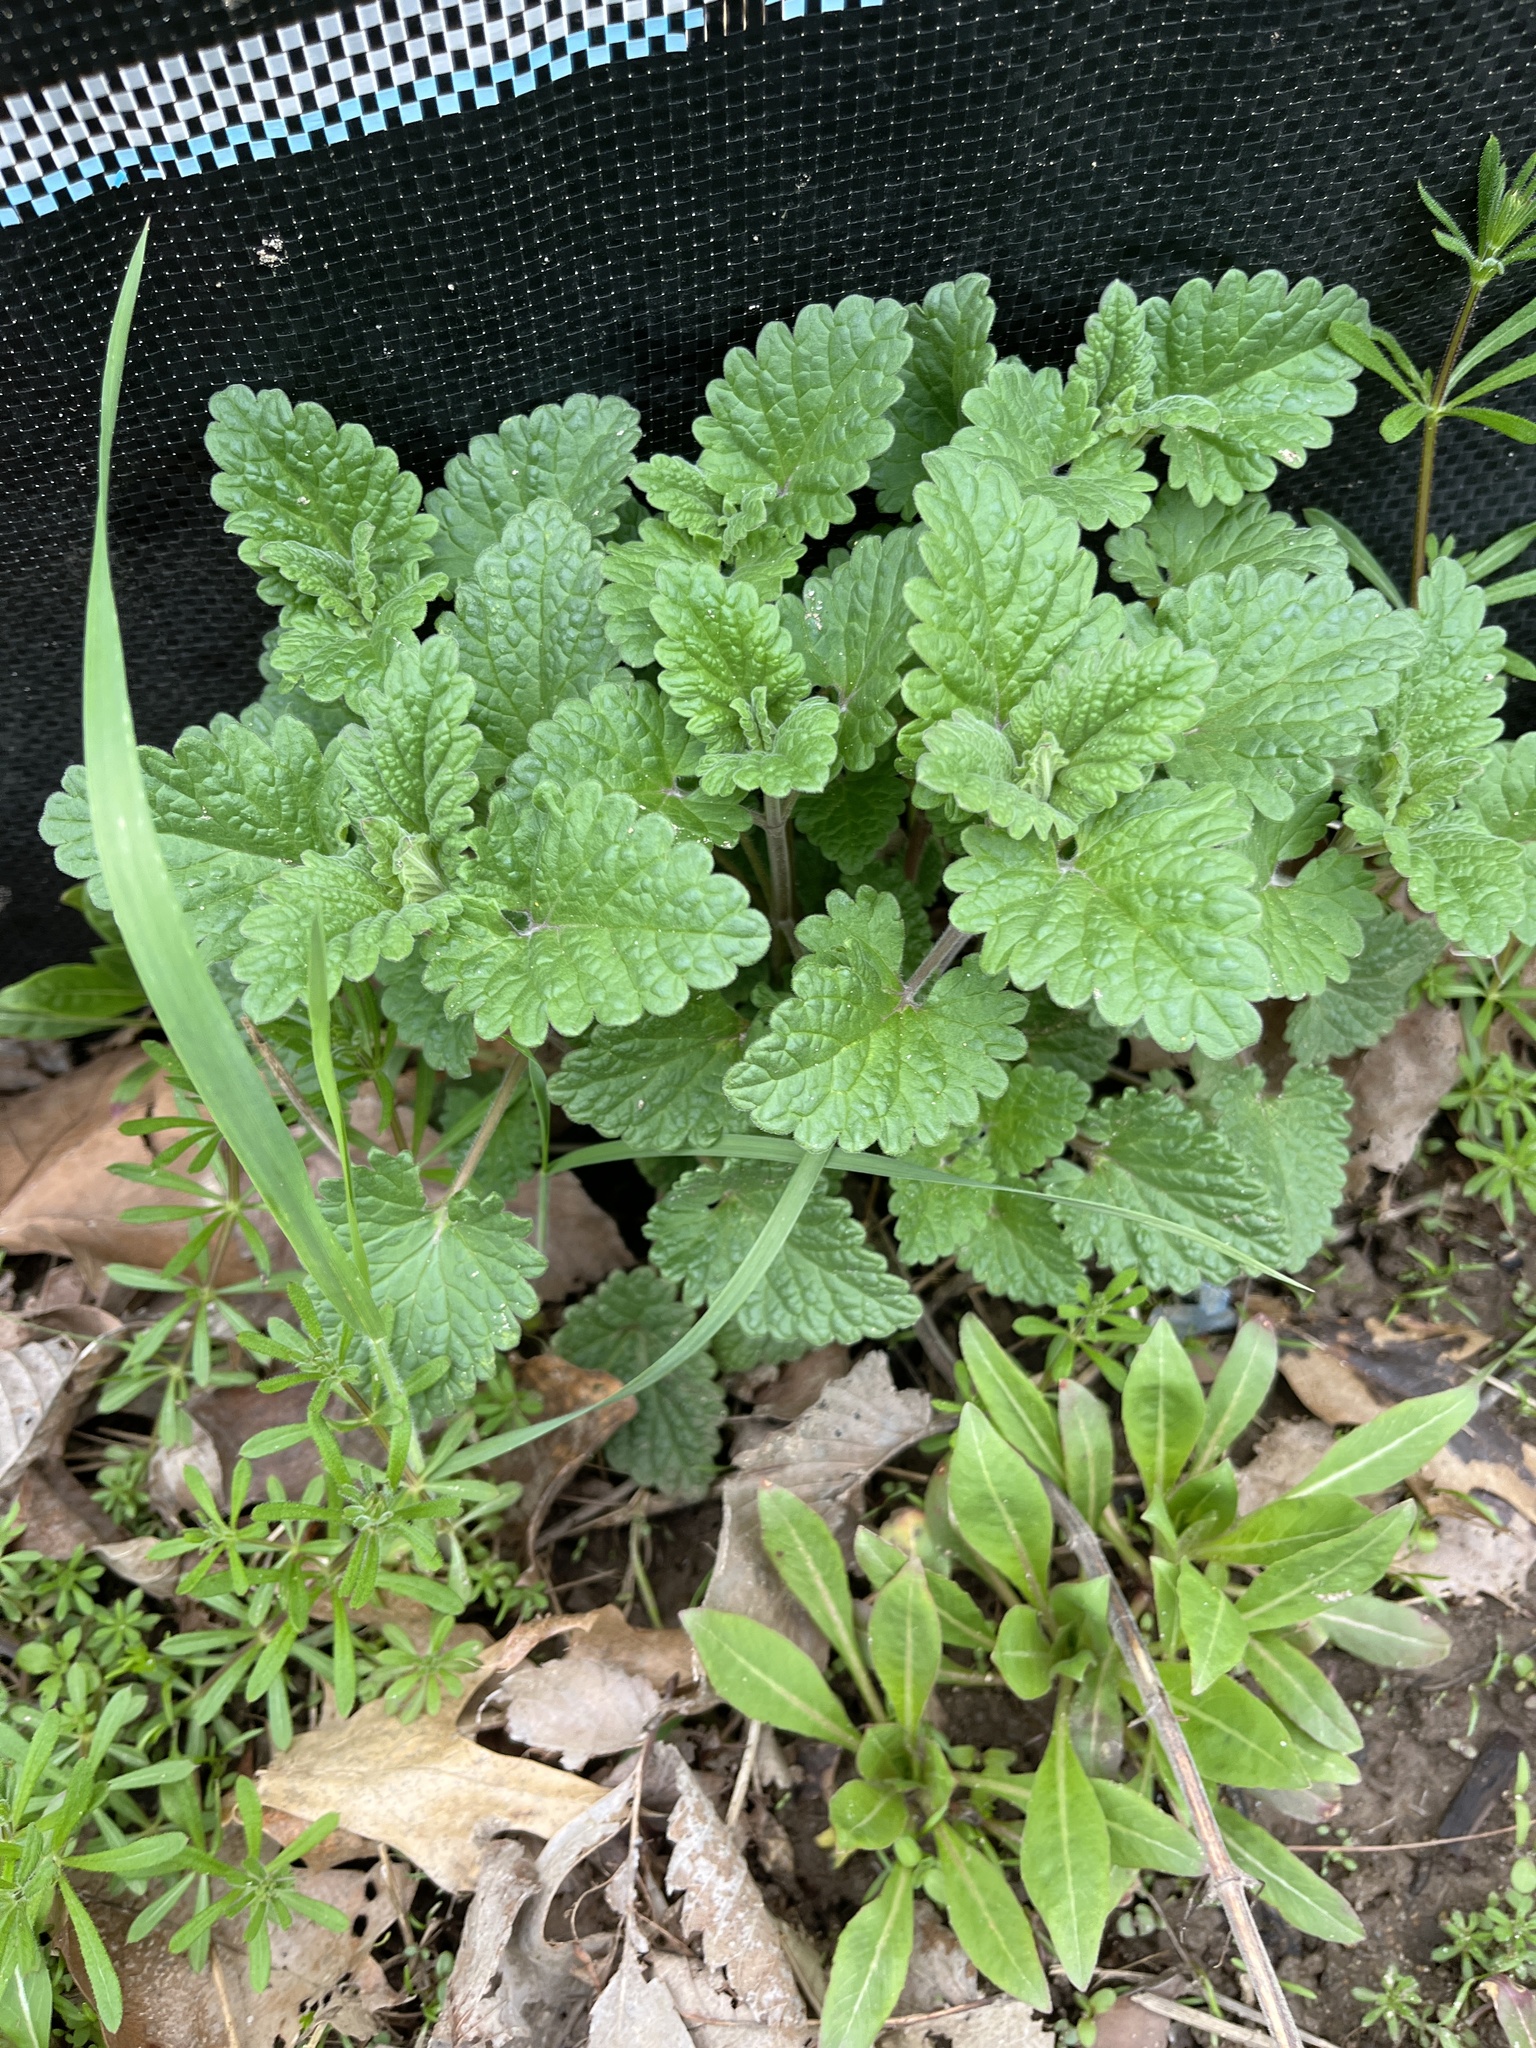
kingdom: Plantae
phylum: Tracheophyta
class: Magnoliopsida
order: Lamiales
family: Lamiaceae
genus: Nepeta
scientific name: Nepeta cataria
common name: Catnip
